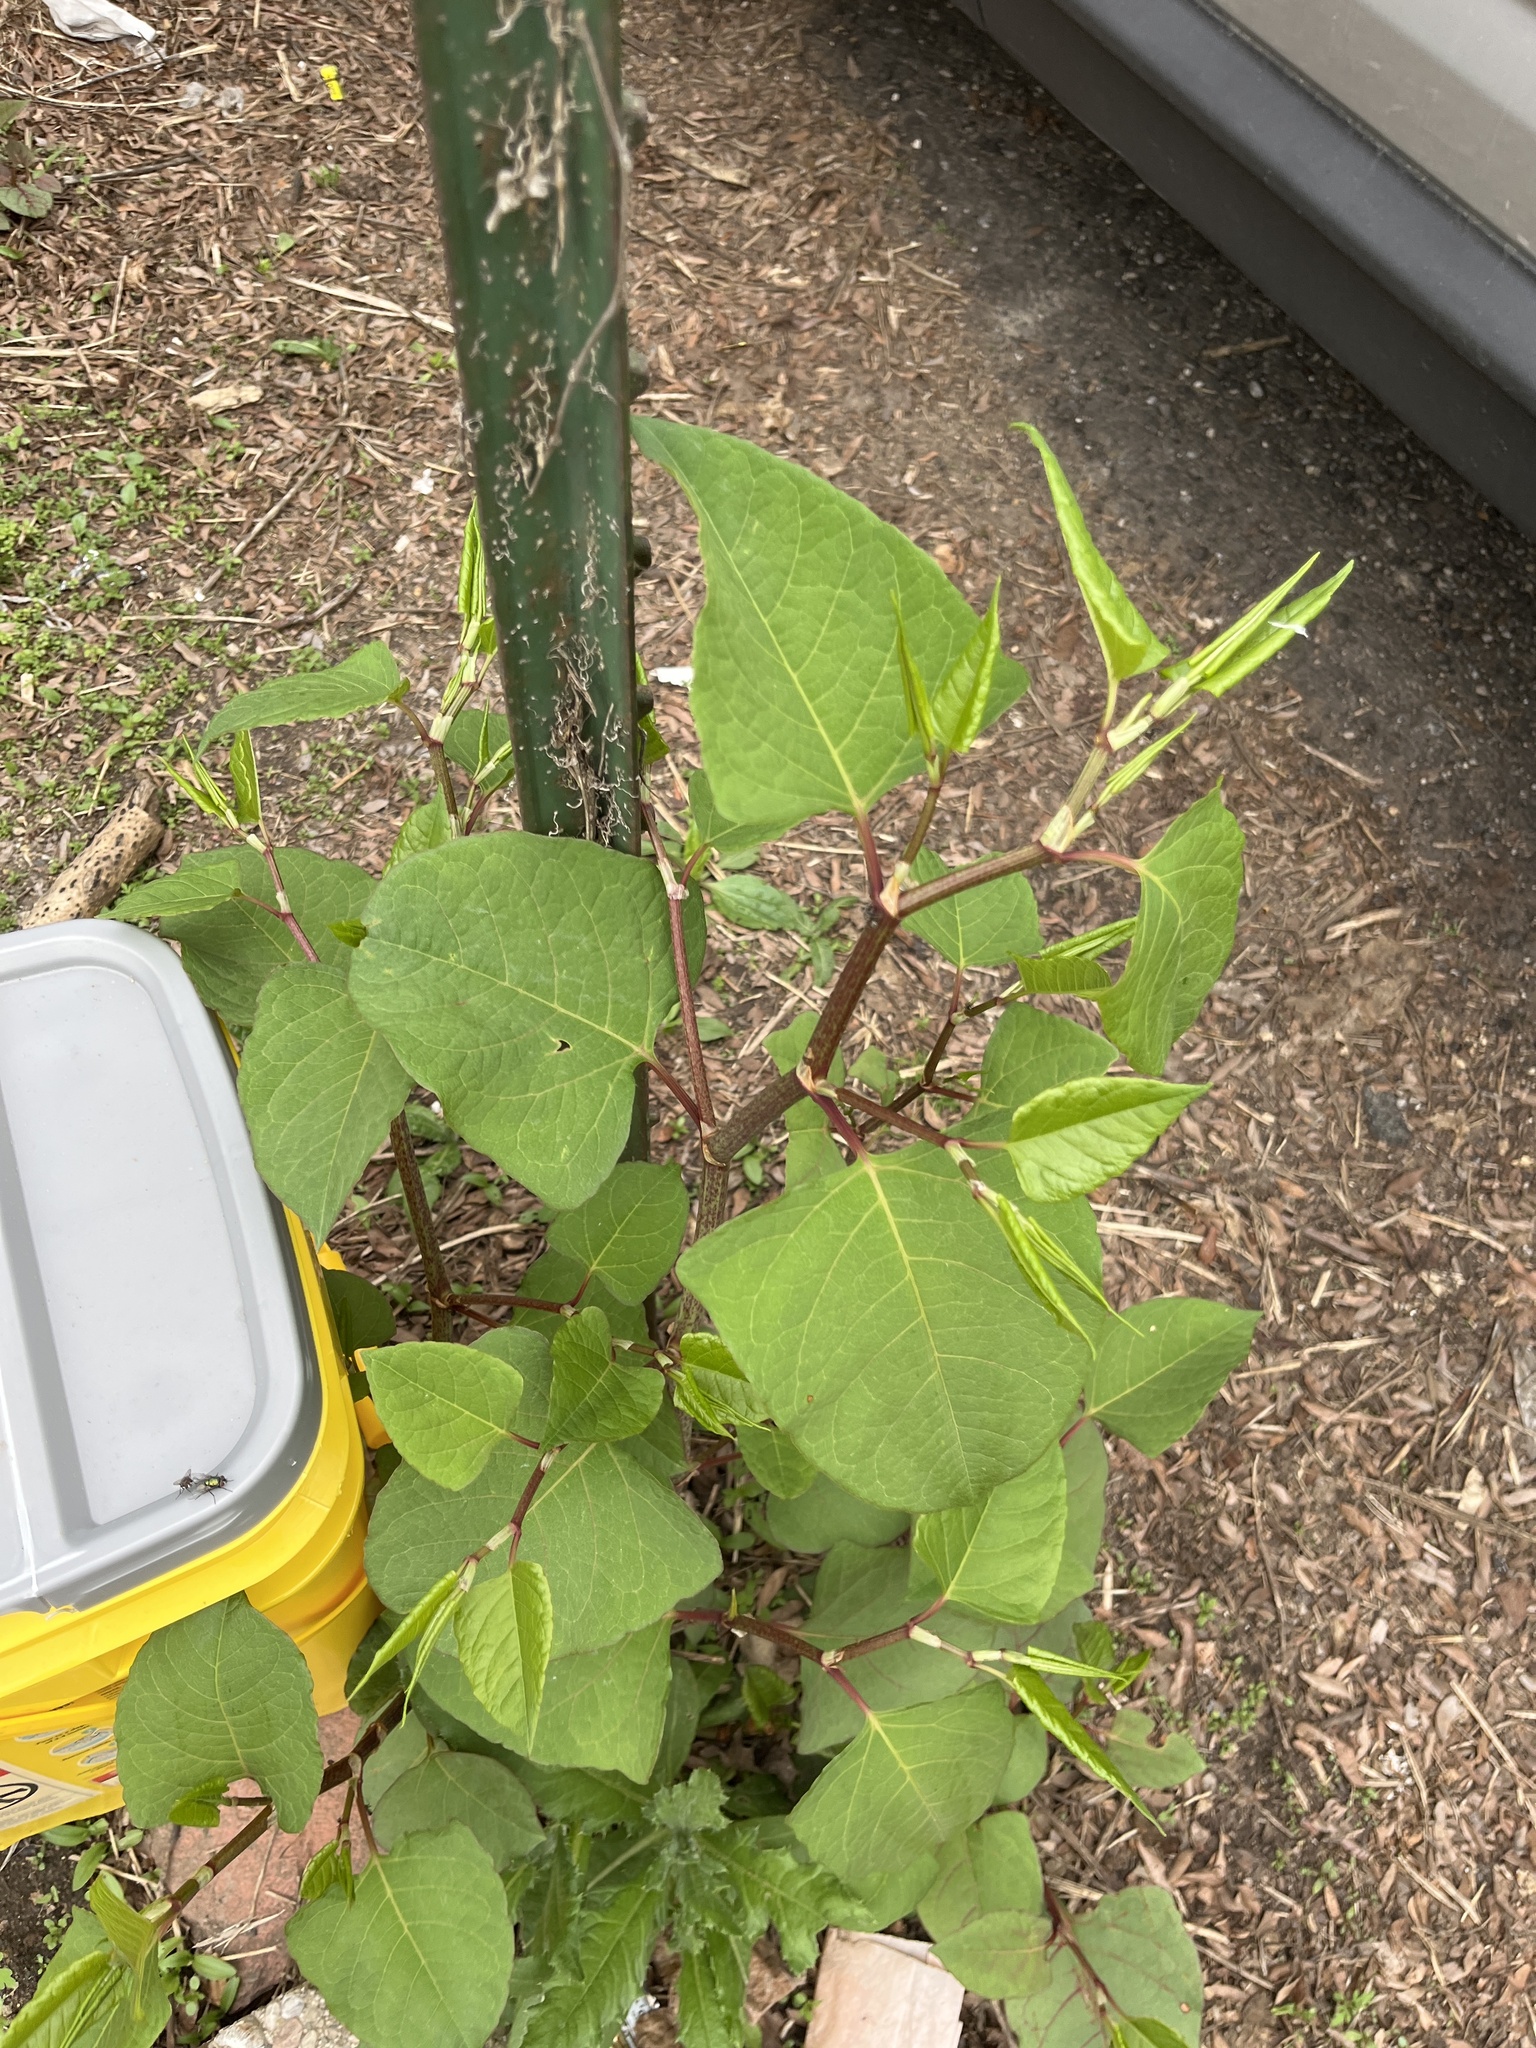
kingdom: Plantae
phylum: Tracheophyta
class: Magnoliopsida
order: Caryophyllales
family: Polygonaceae
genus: Reynoutria
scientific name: Reynoutria japonica
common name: Japanese knotweed
